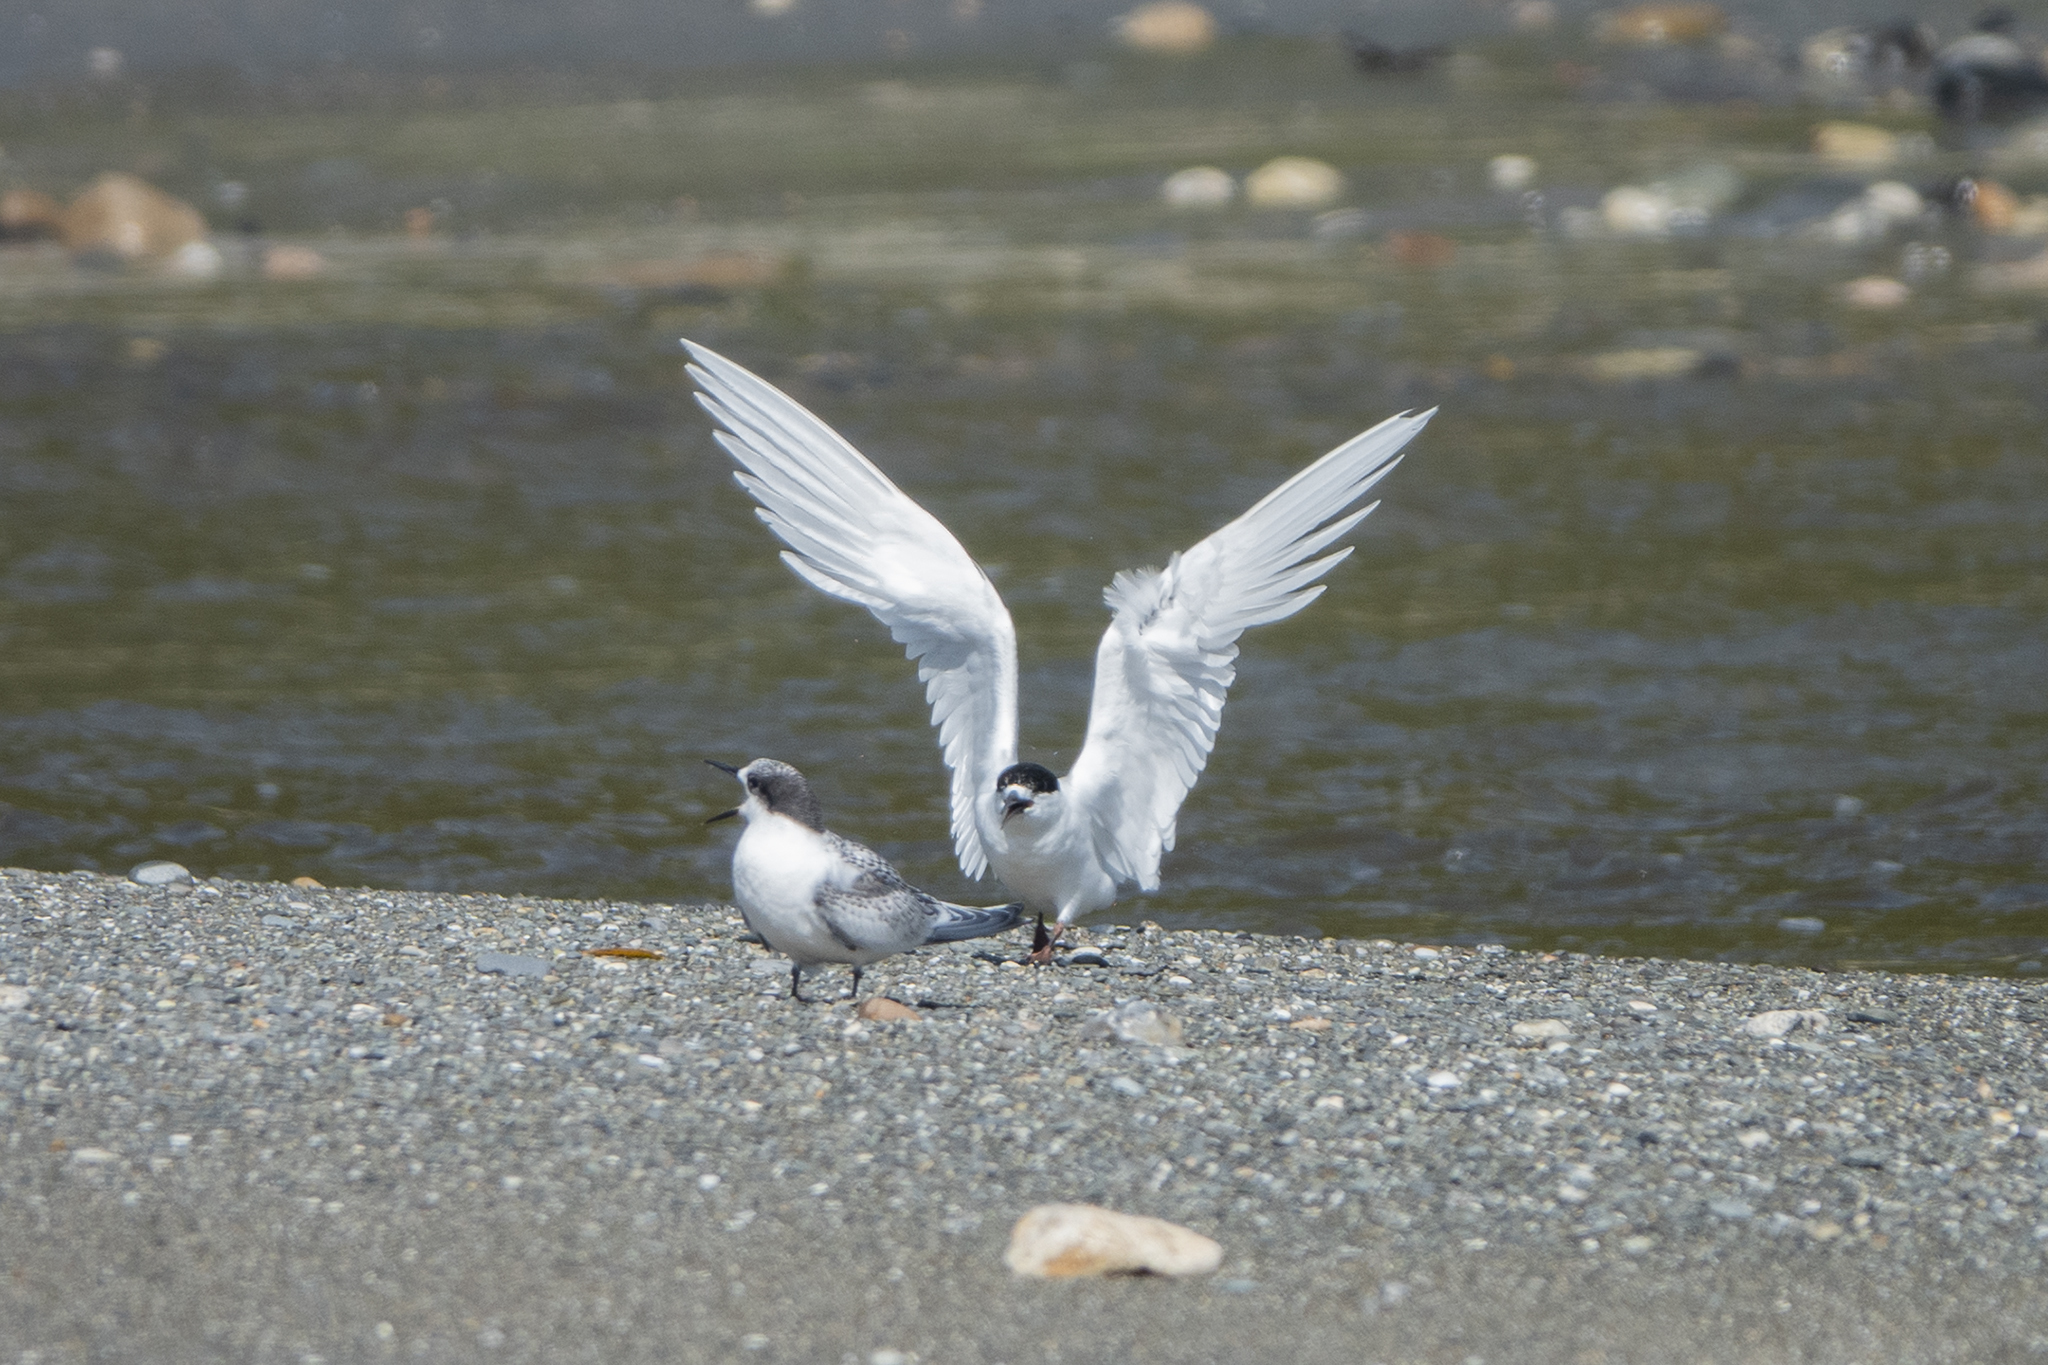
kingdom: Animalia
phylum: Chordata
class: Aves
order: Charadriiformes
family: Laridae
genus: Sterna
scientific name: Sterna striata
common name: White-fronted tern
